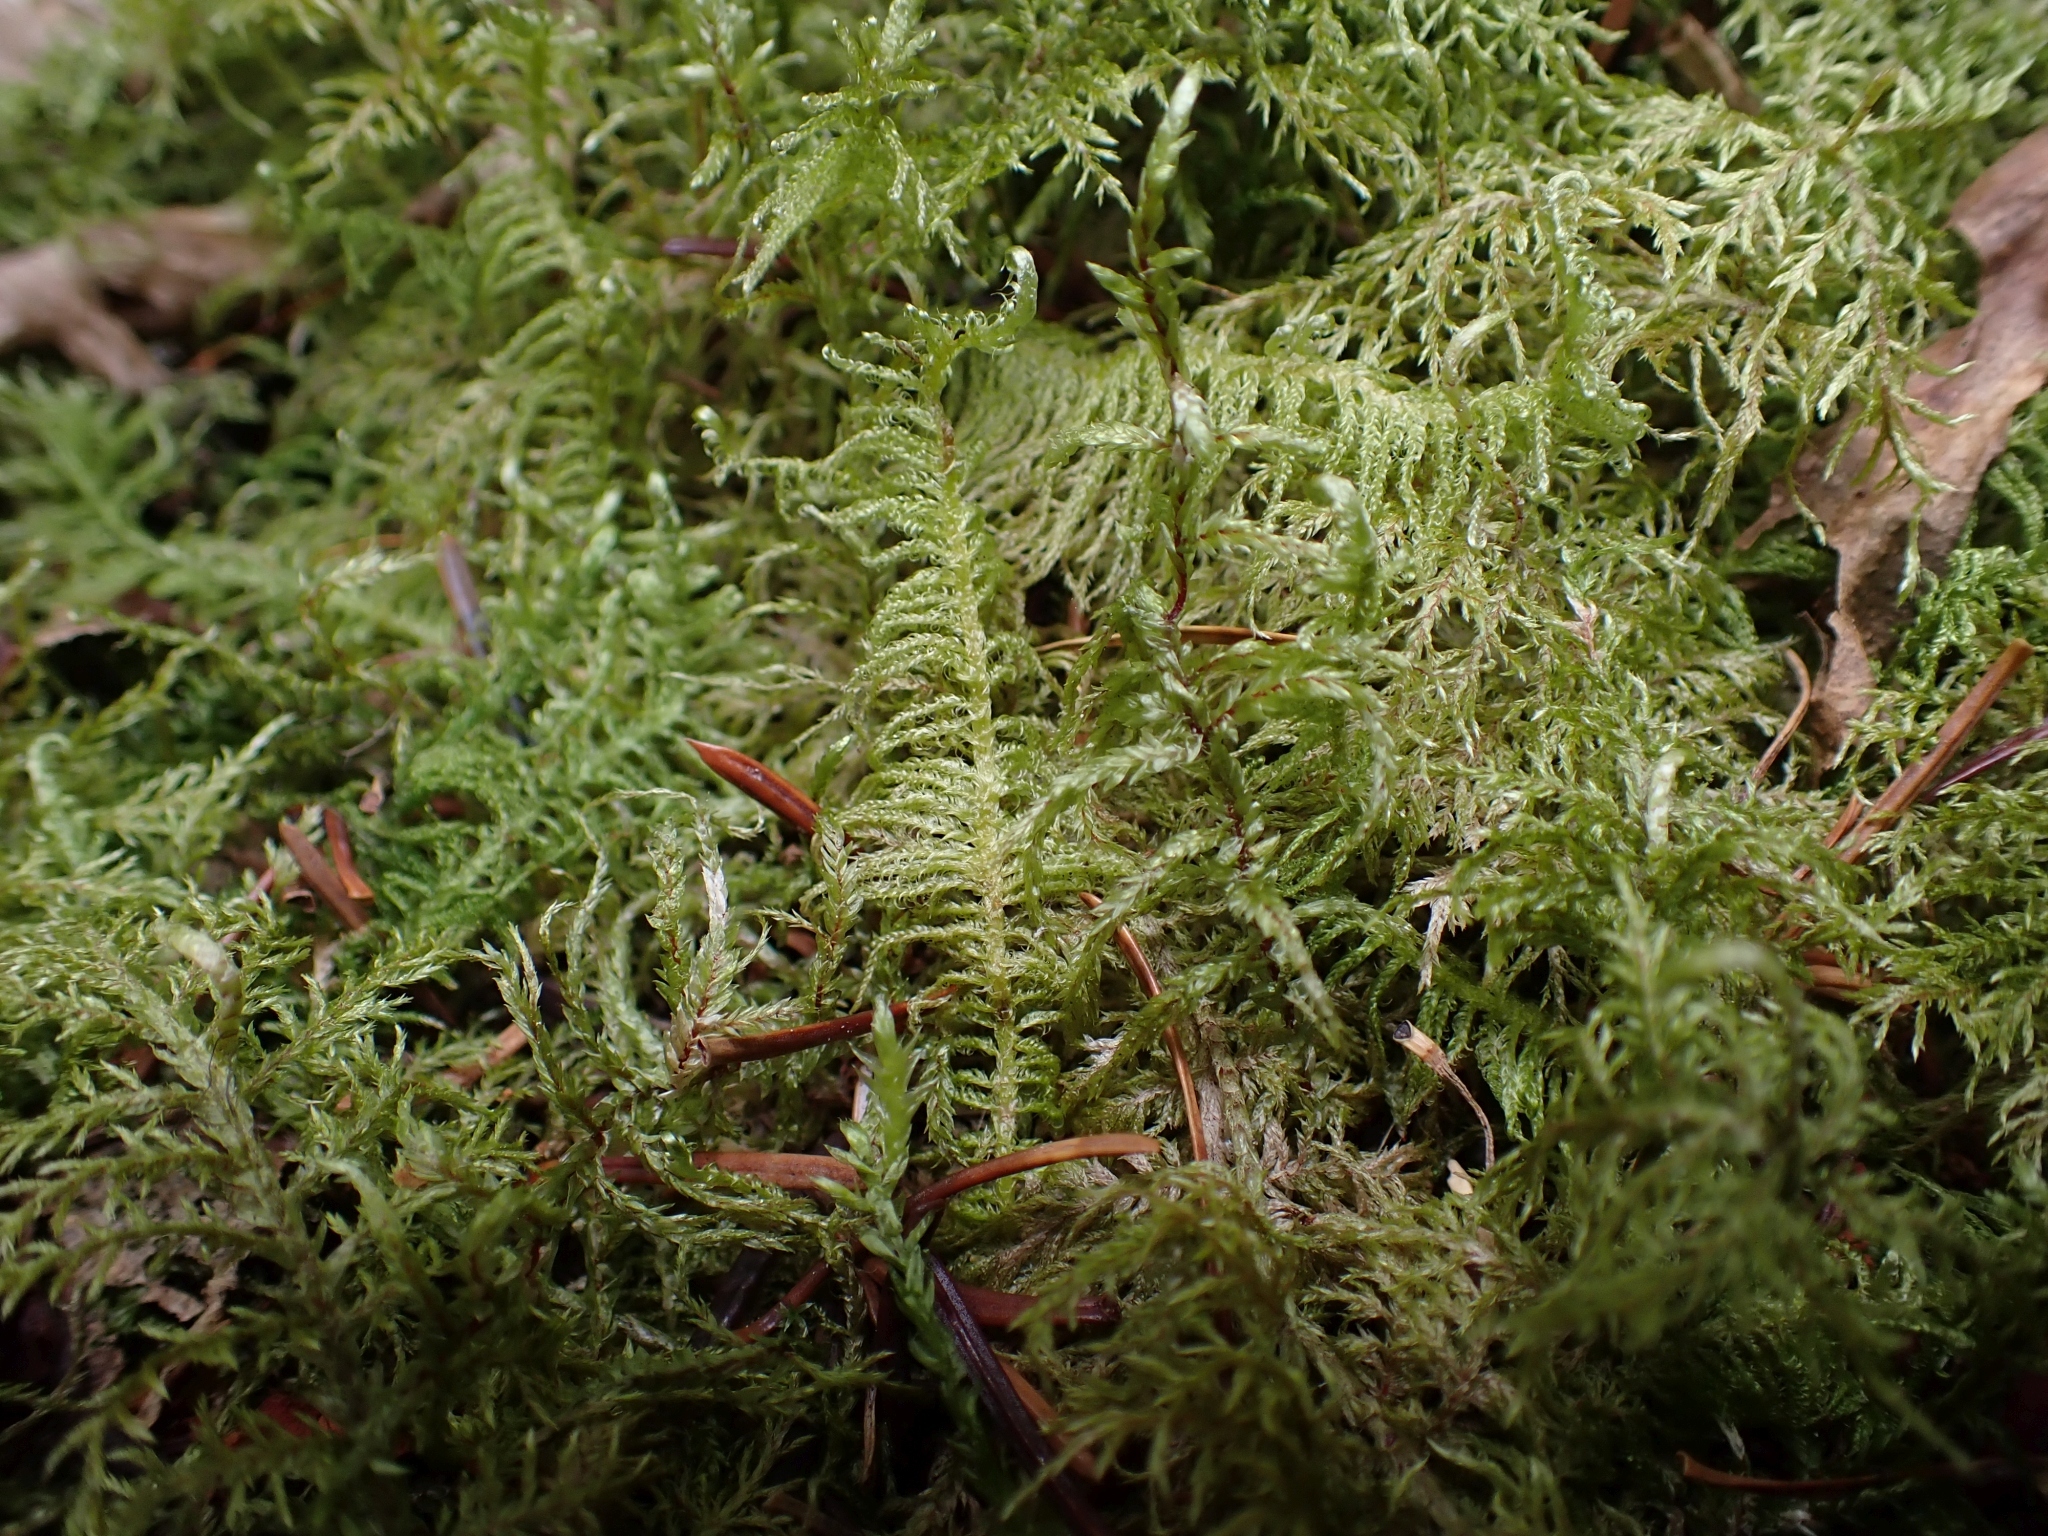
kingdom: Plantae
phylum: Bryophyta
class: Bryopsida
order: Hypnales
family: Pylaisiaceae
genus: Ptilium
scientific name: Ptilium crista-castrensis
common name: Knight's plume moss
